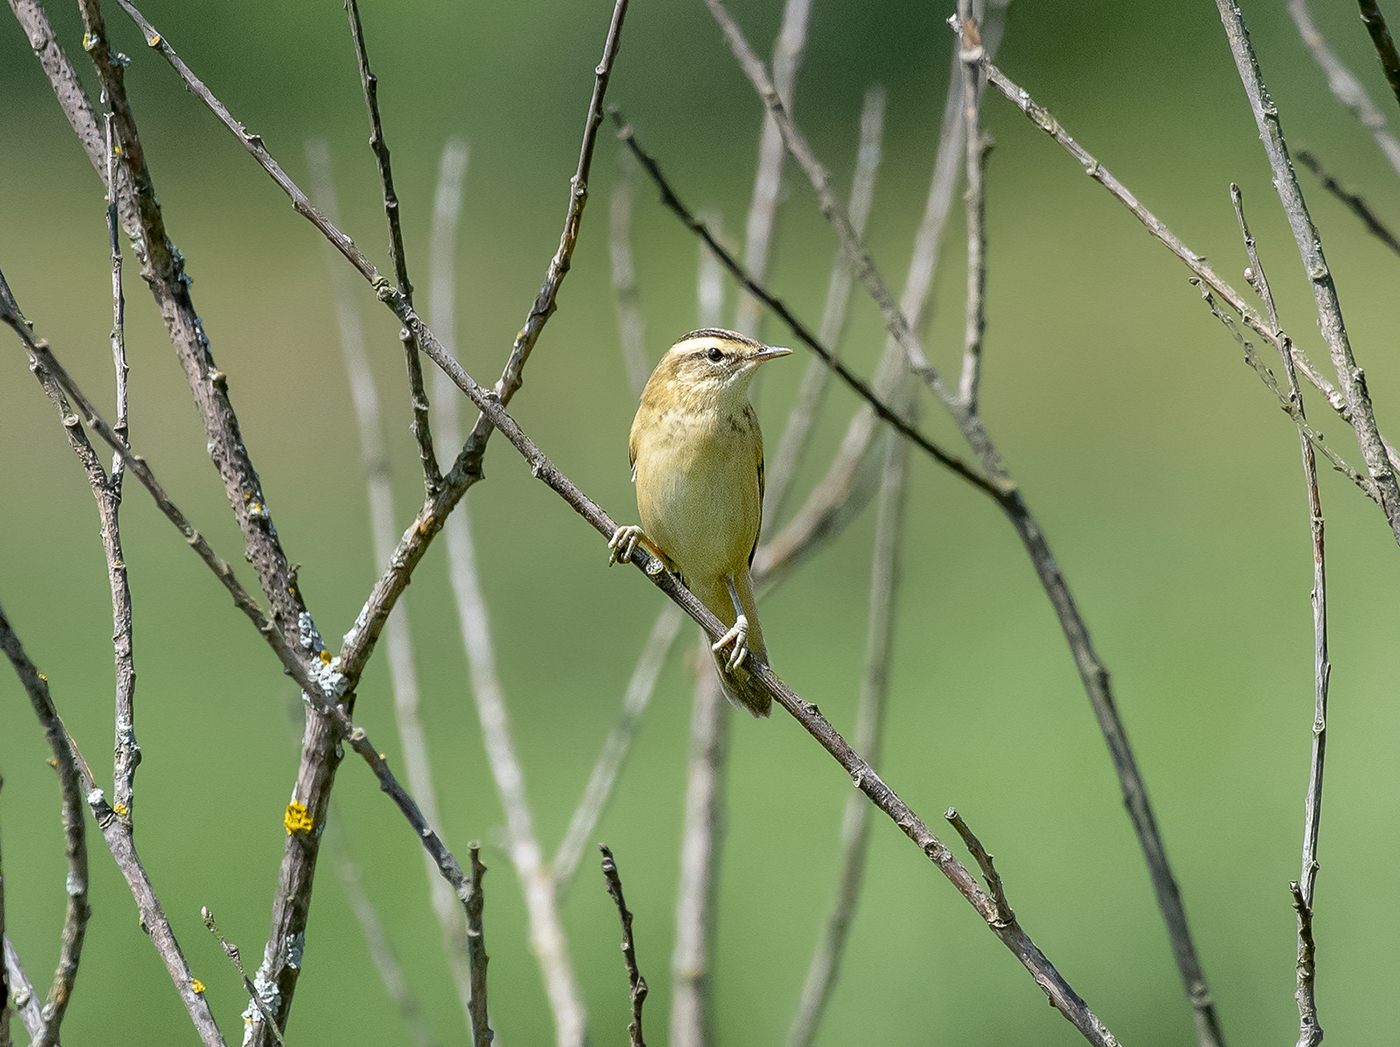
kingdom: Animalia
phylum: Chordata
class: Aves
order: Passeriformes
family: Acrocephalidae
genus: Acrocephalus
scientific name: Acrocephalus schoenobaenus
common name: Sedge warbler
